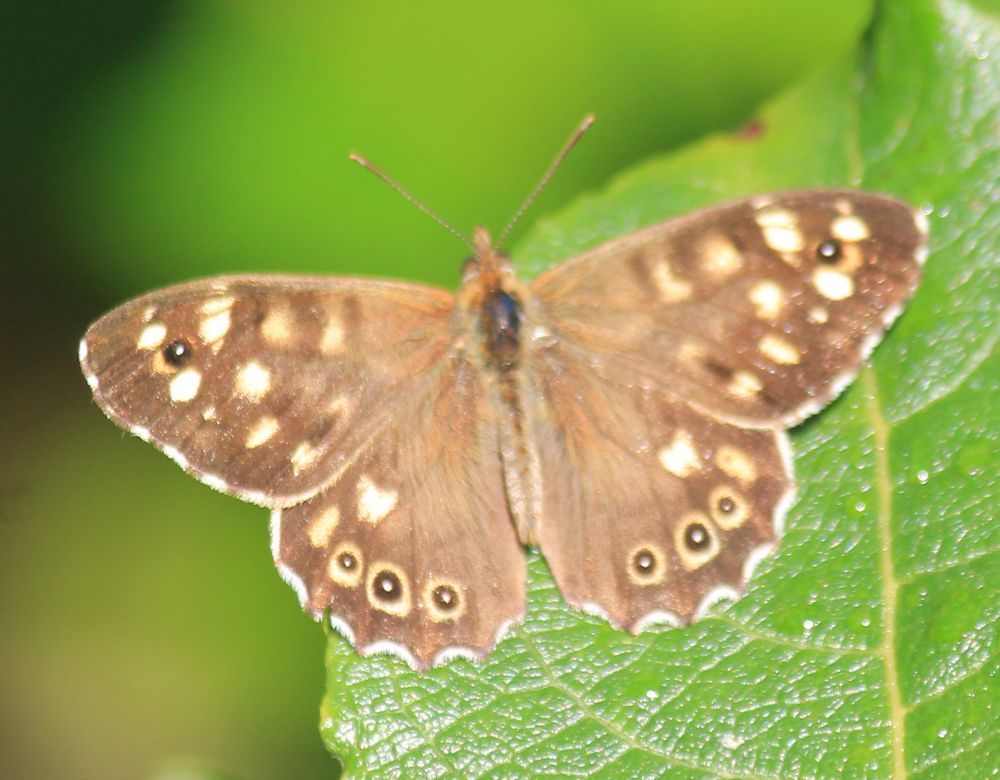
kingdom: Animalia
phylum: Arthropoda
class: Insecta
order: Lepidoptera
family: Nymphalidae
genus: Pararge
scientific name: Pararge aegeria
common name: Speckled wood
